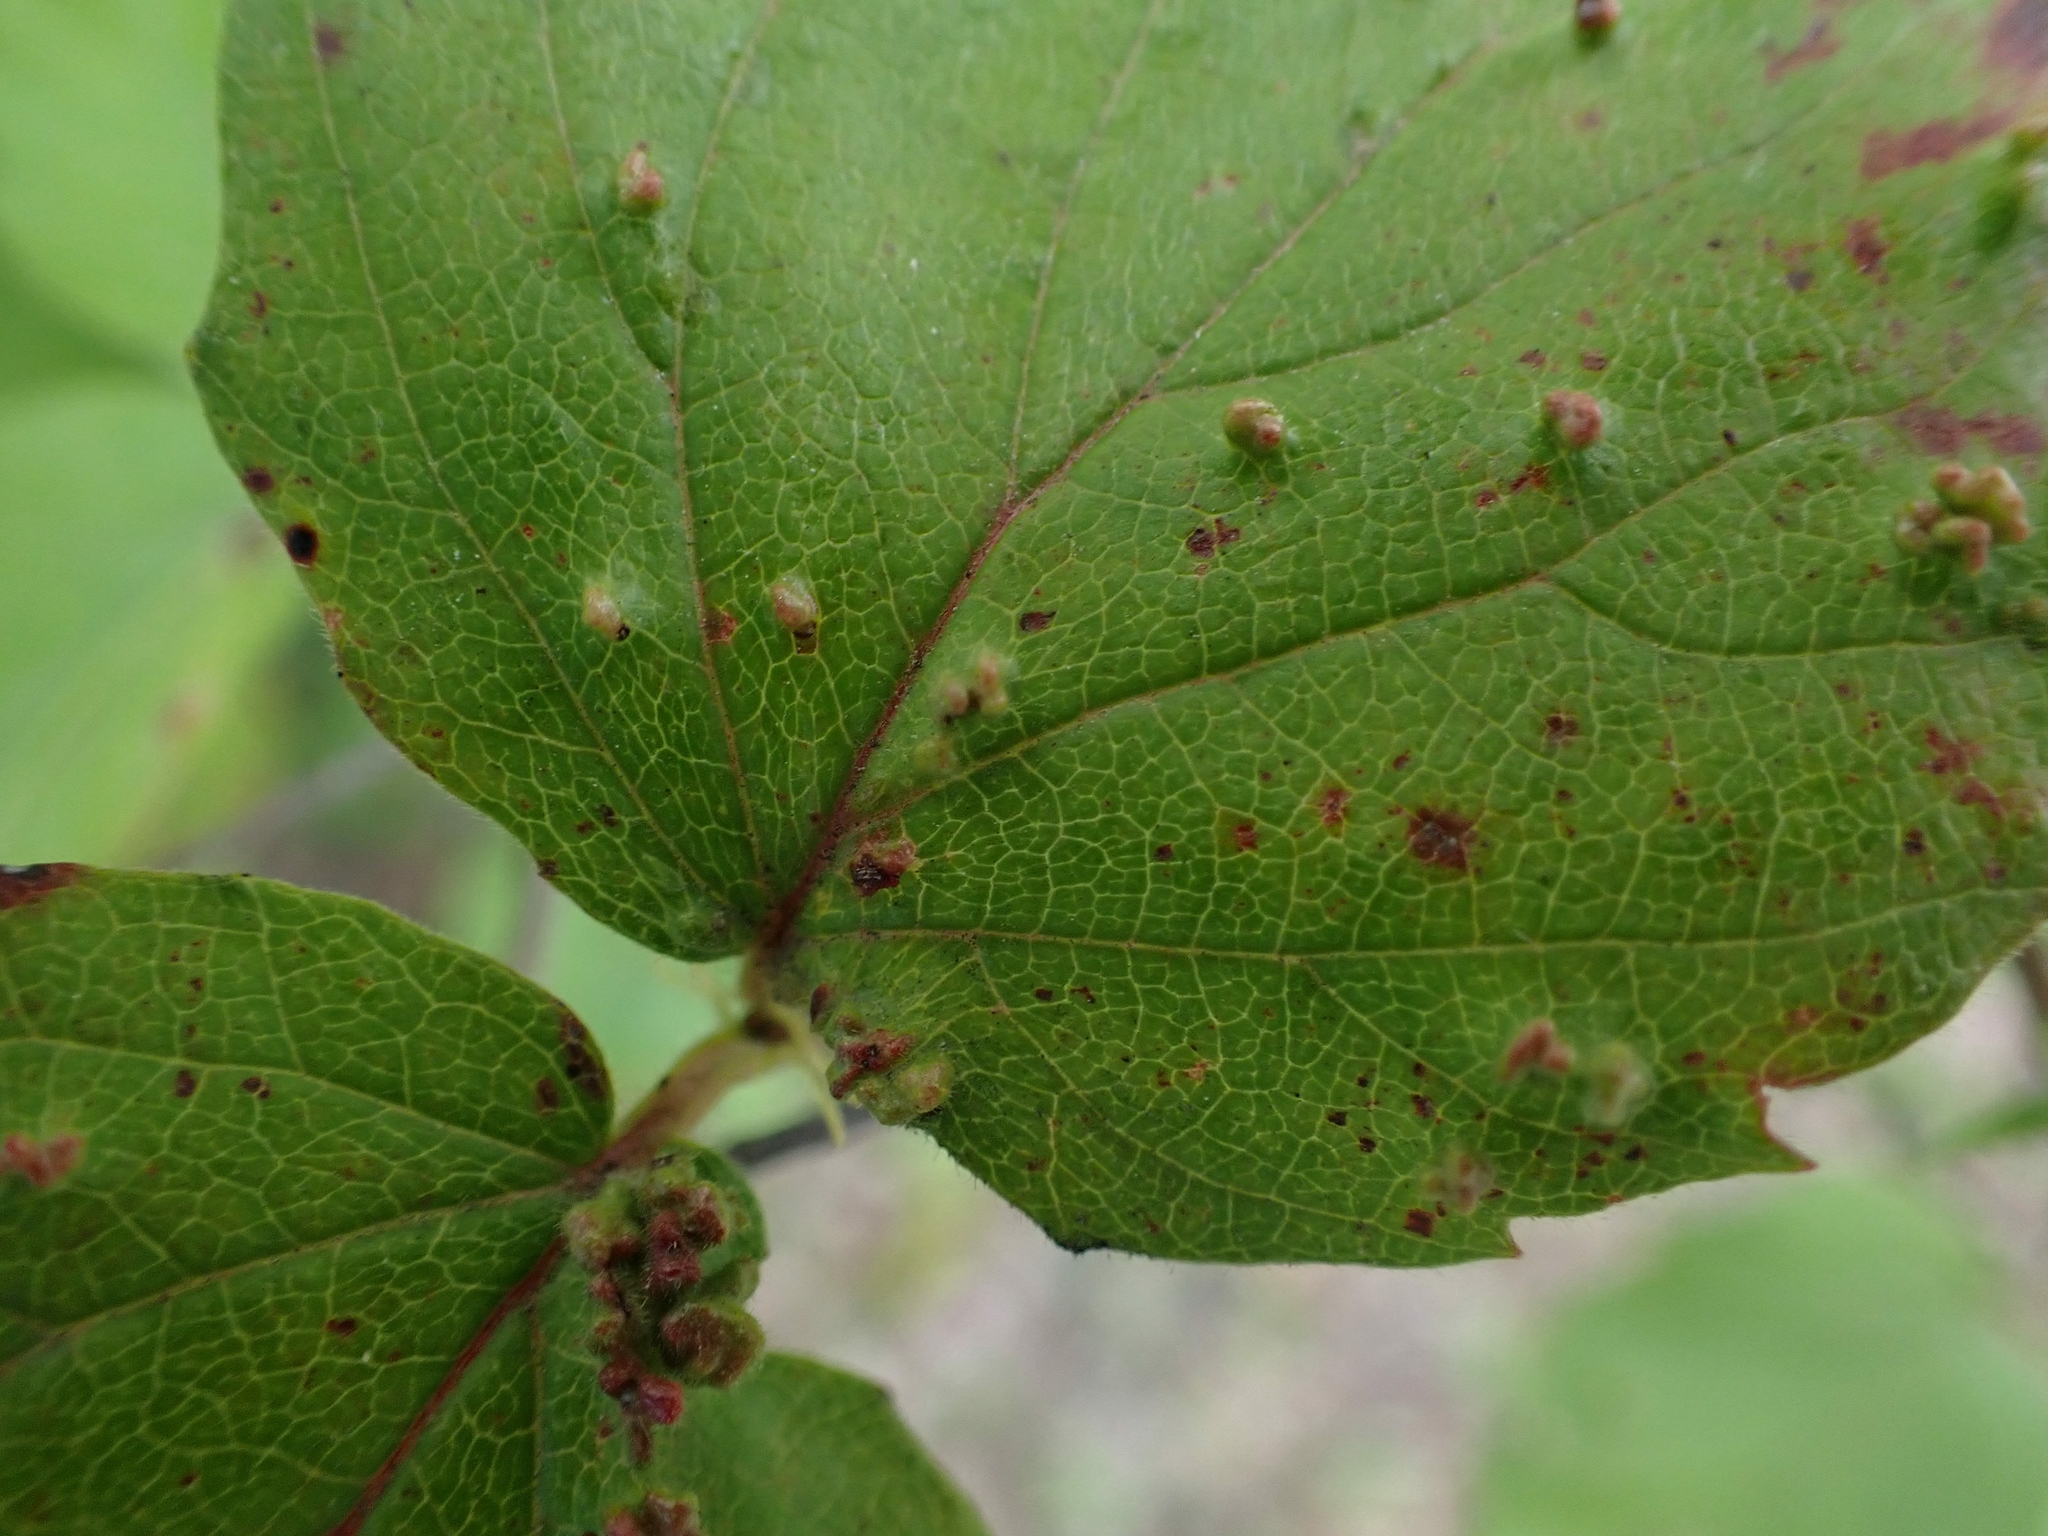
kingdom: Animalia
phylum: Arthropoda
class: Arachnida
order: Trombidiformes
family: Eriophyidae
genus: Eriophyes
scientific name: Eriophyes
